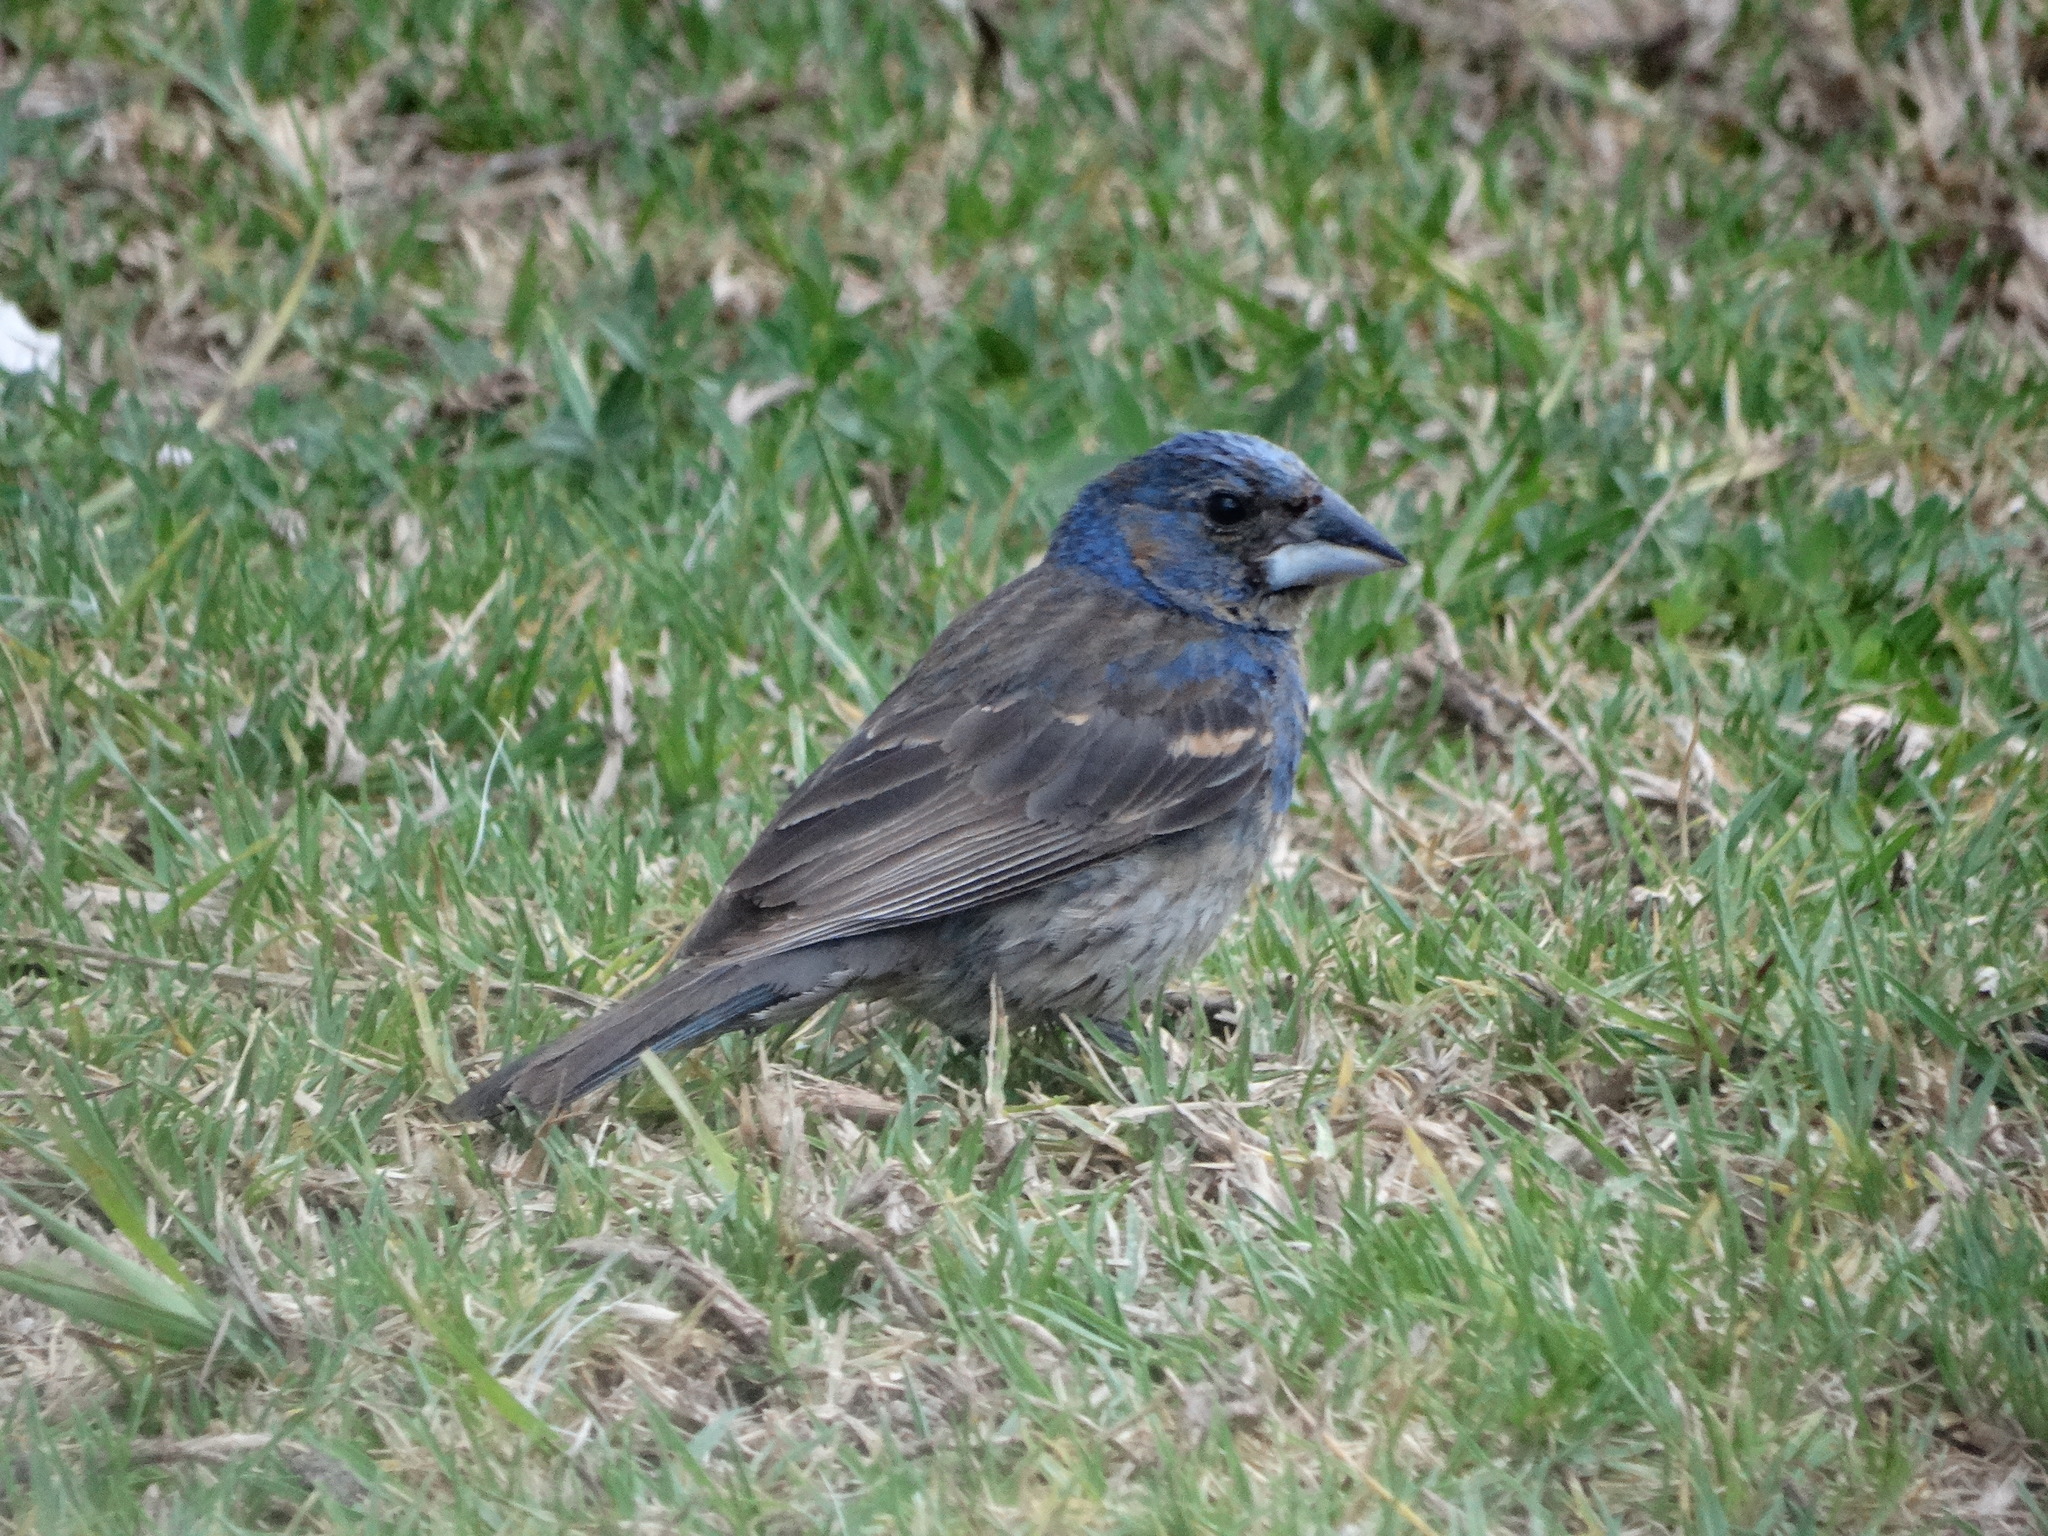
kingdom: Animalia
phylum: Chordata
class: Aves
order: Passeriformes
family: Cardinalidae
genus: Passerina
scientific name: Passerina caerulea
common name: Blue grosbeak
